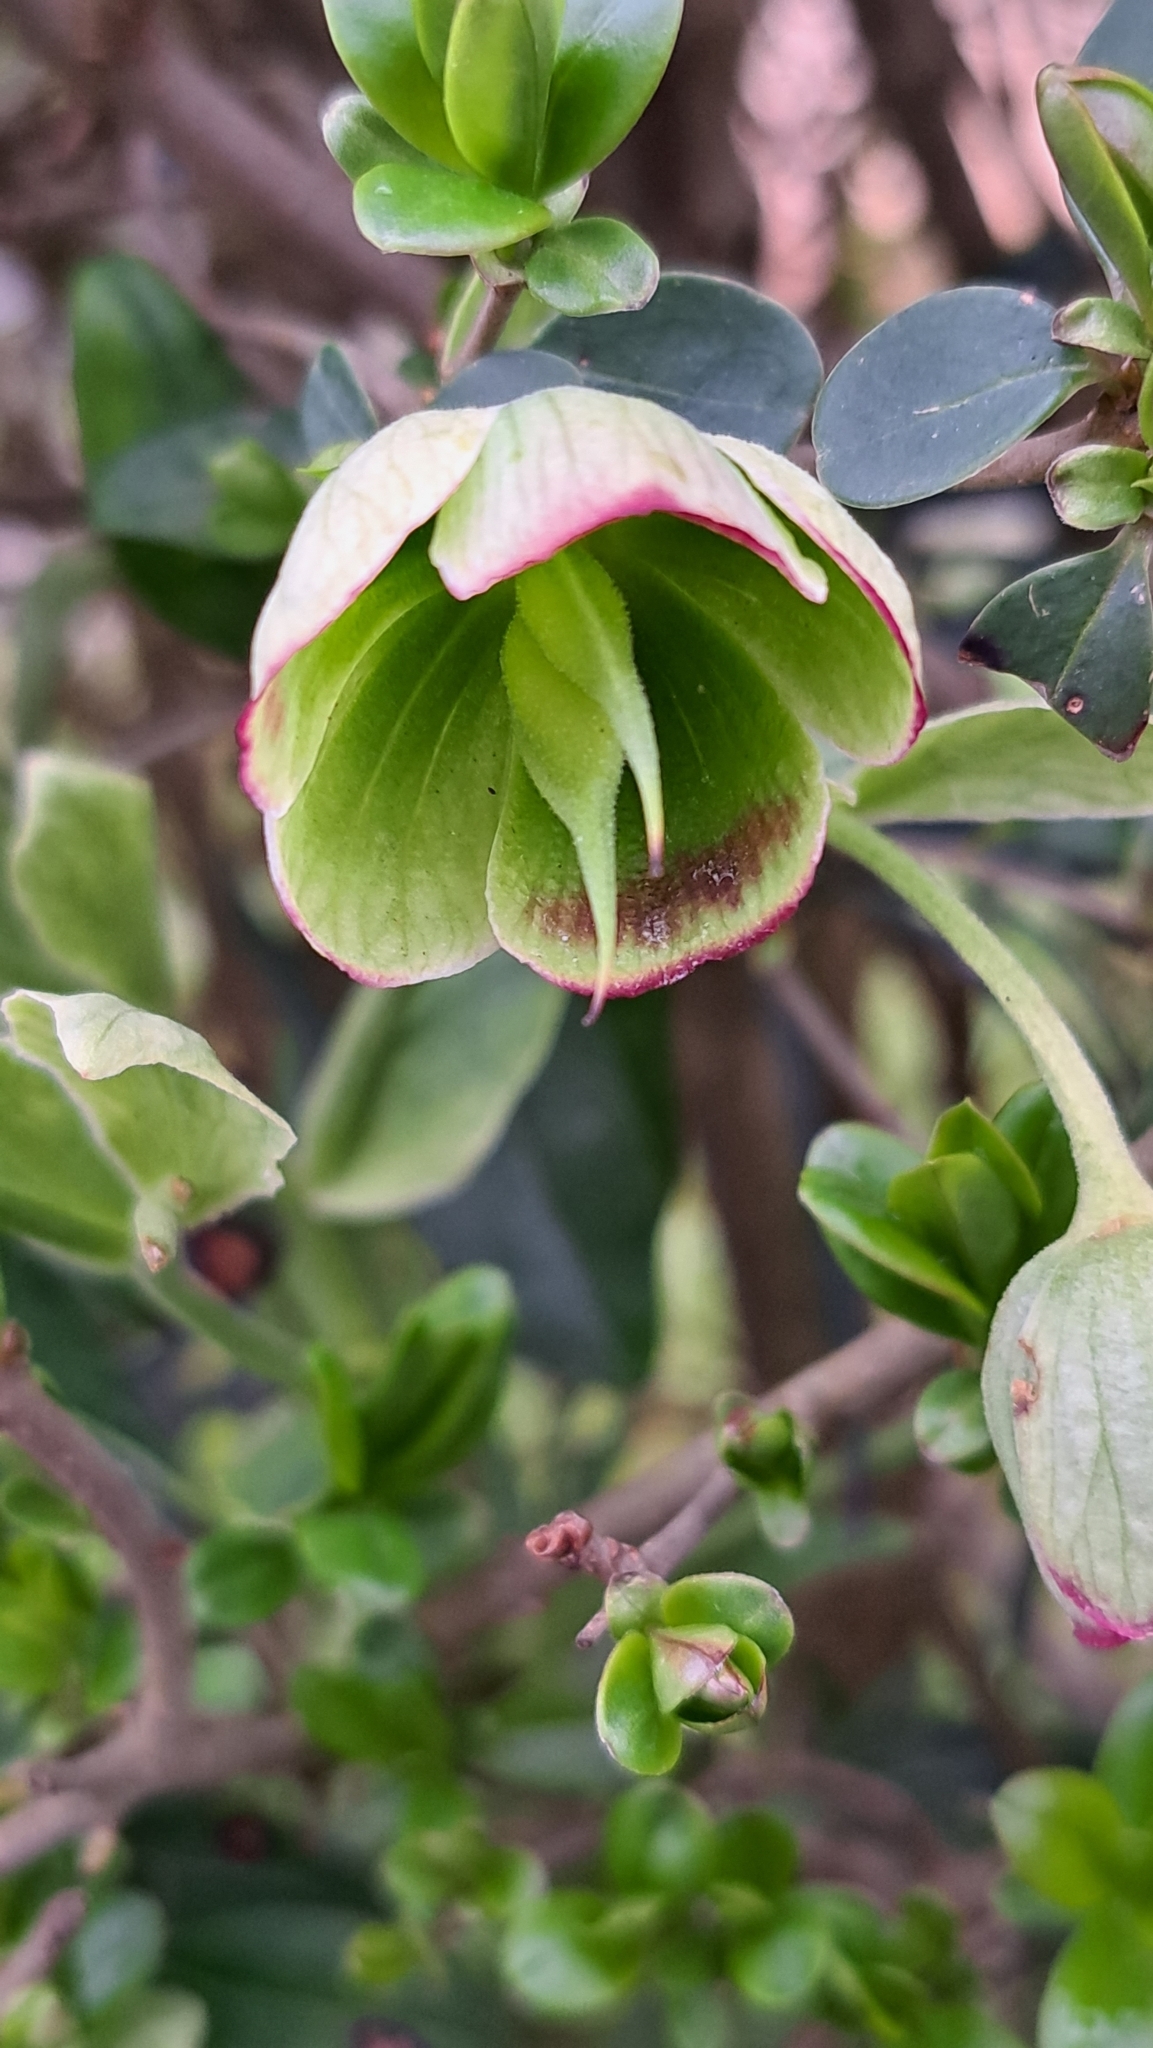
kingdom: Plantae
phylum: Tracheophyta
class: Magnoliopsida
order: Ranunculales
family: Ranunculaceae
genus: Helleborus
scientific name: Helleborus foetidus
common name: Stinking hellebore
